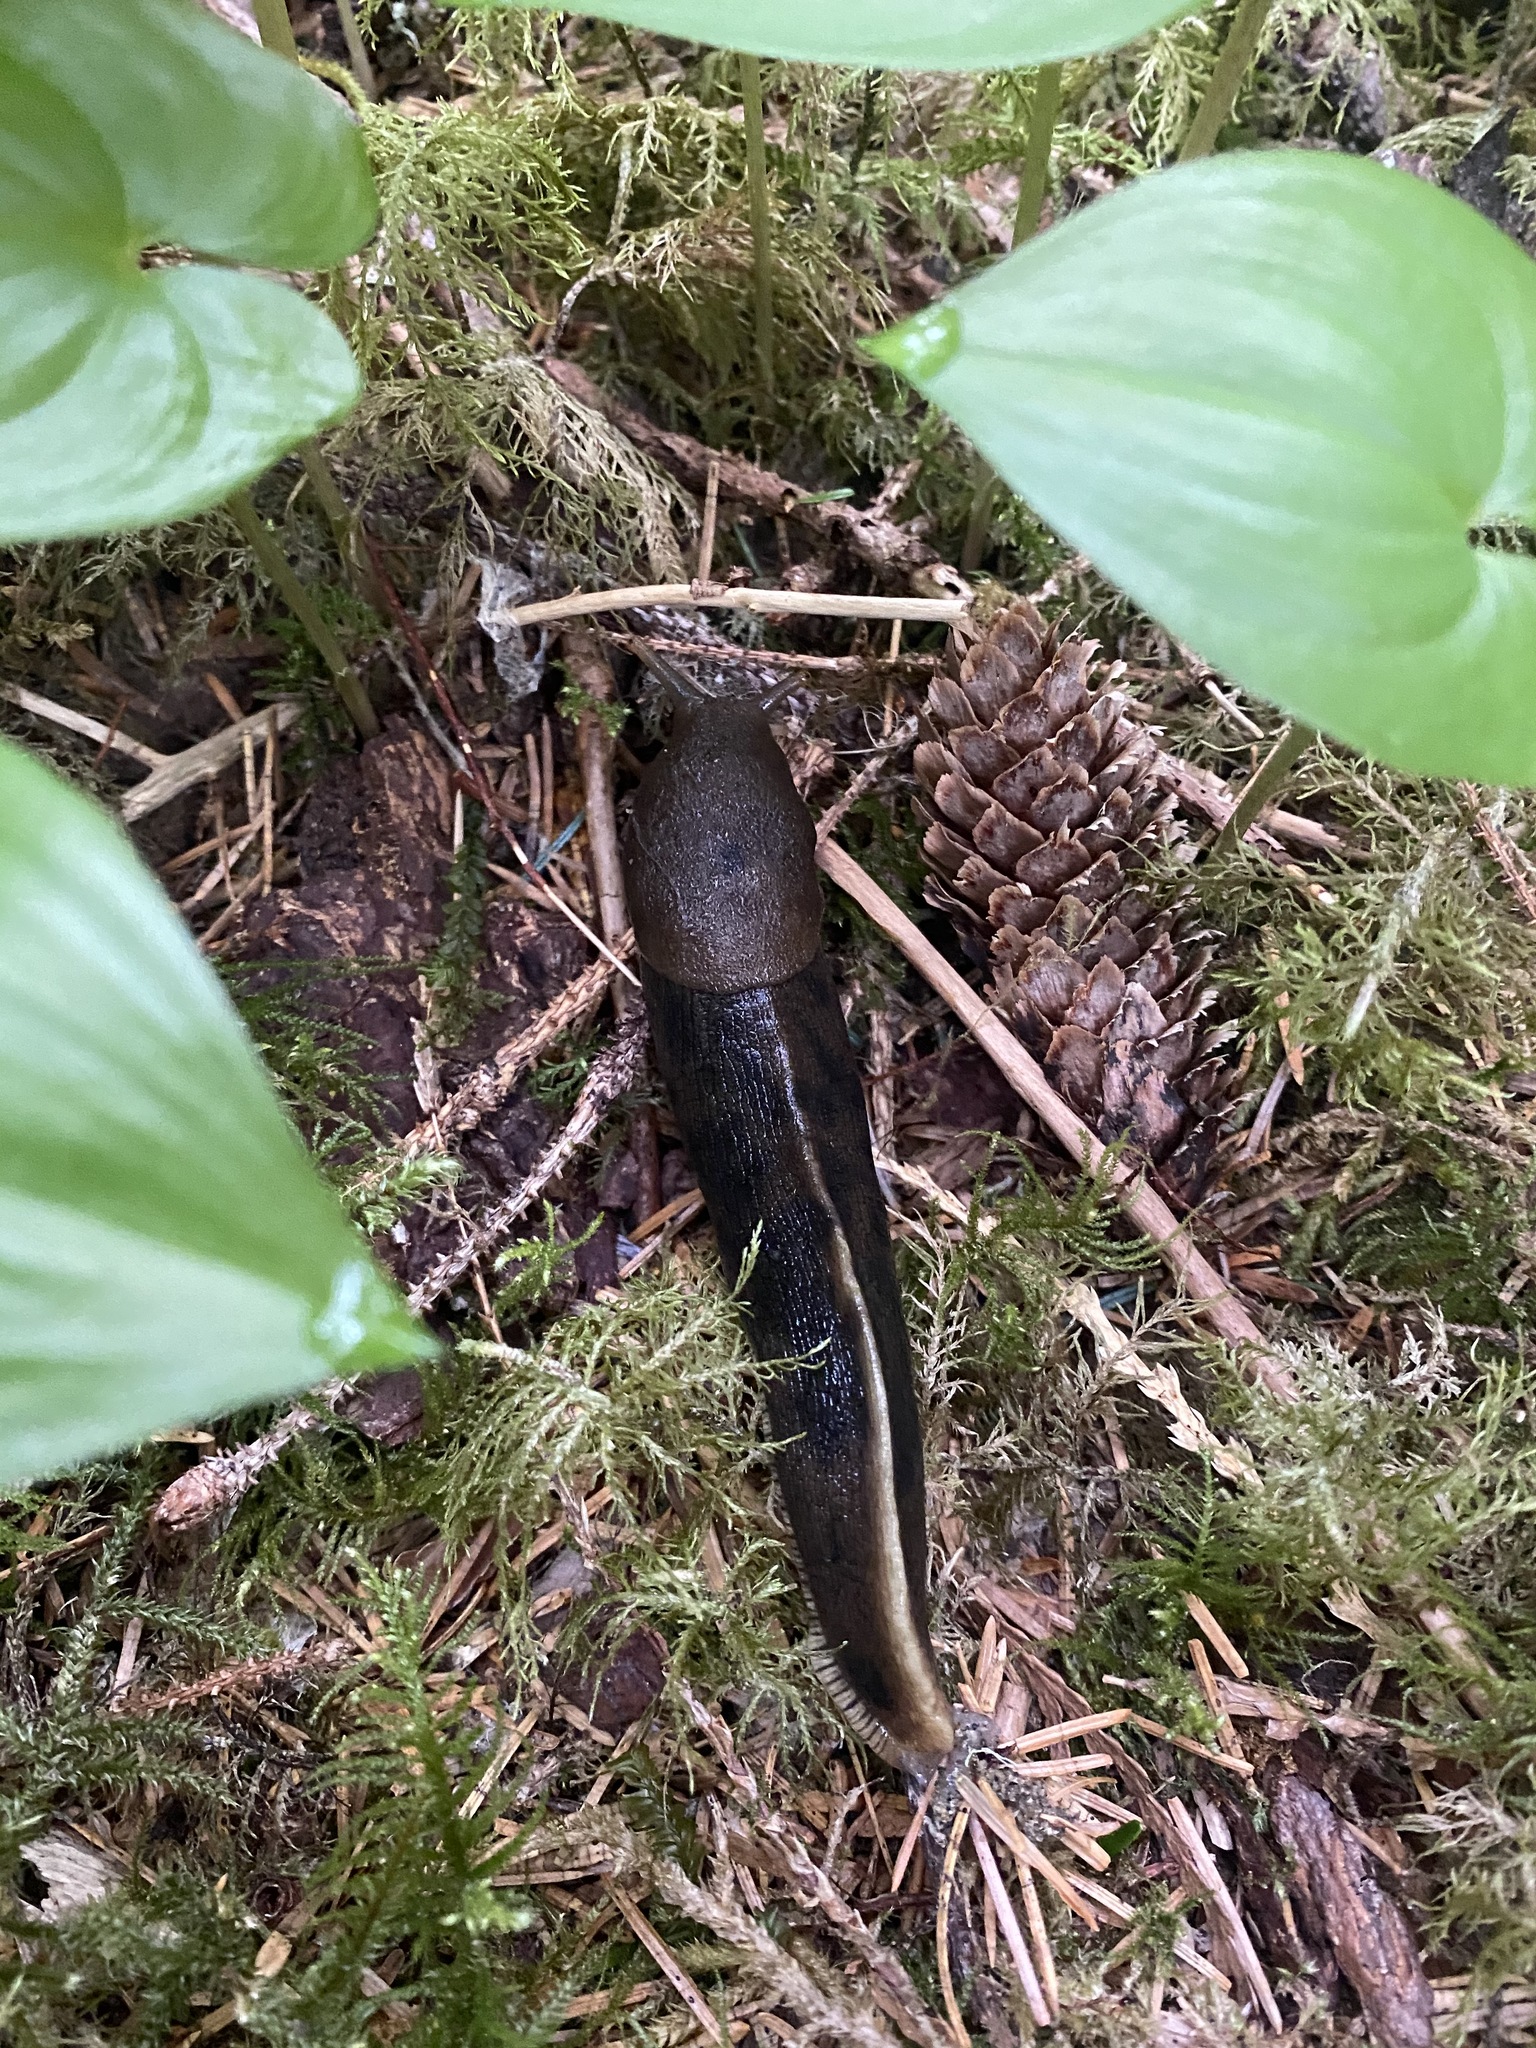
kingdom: Animalia
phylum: Mollusca
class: Gastropoda
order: Stylommatophora
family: Ariolimacidae
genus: Ariolimax
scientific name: Ariolimax columbianus
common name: Pacific banana slug
